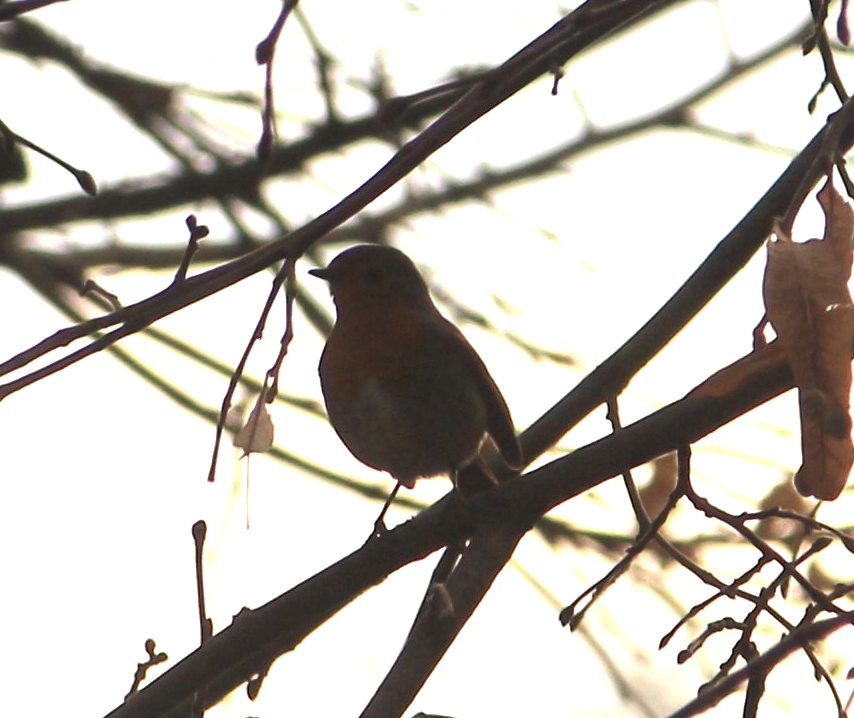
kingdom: Animalia
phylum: Chordata
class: Aves
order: Passeriformes
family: Muscicapidae
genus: Erithacus
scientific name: Erithacus rubecula
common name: European robin
